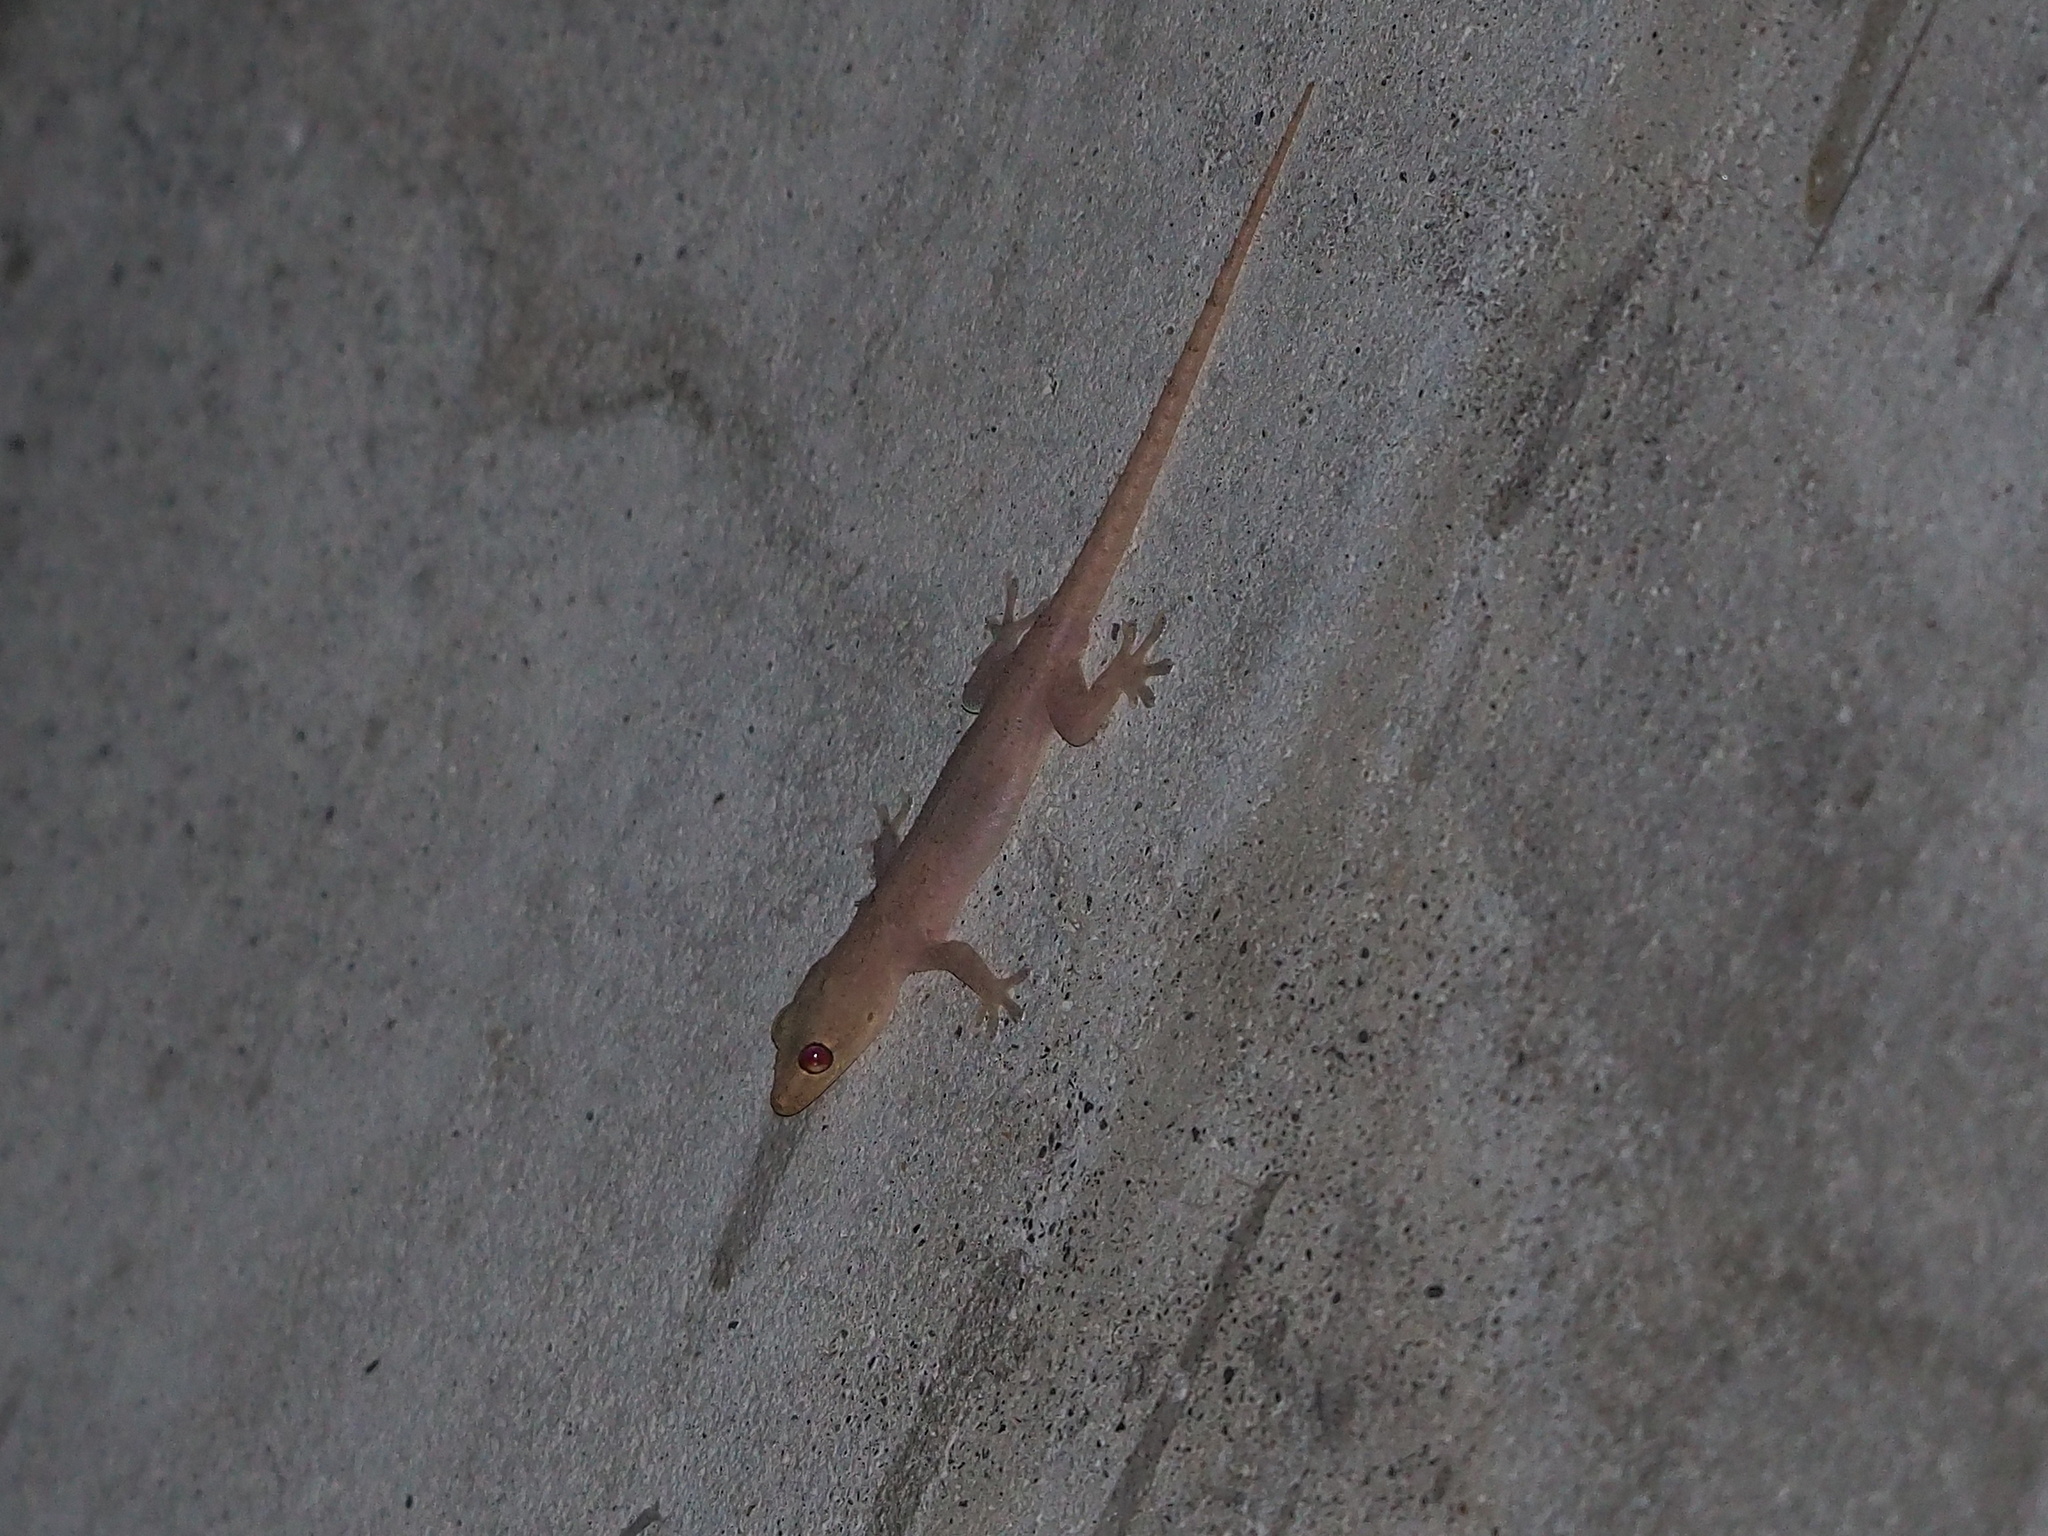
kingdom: Animalia
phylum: Chordata
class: Squamata
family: Gekkonidae
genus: Hemidactylus
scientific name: Hemidactylus frenatus
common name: Common house gecko
